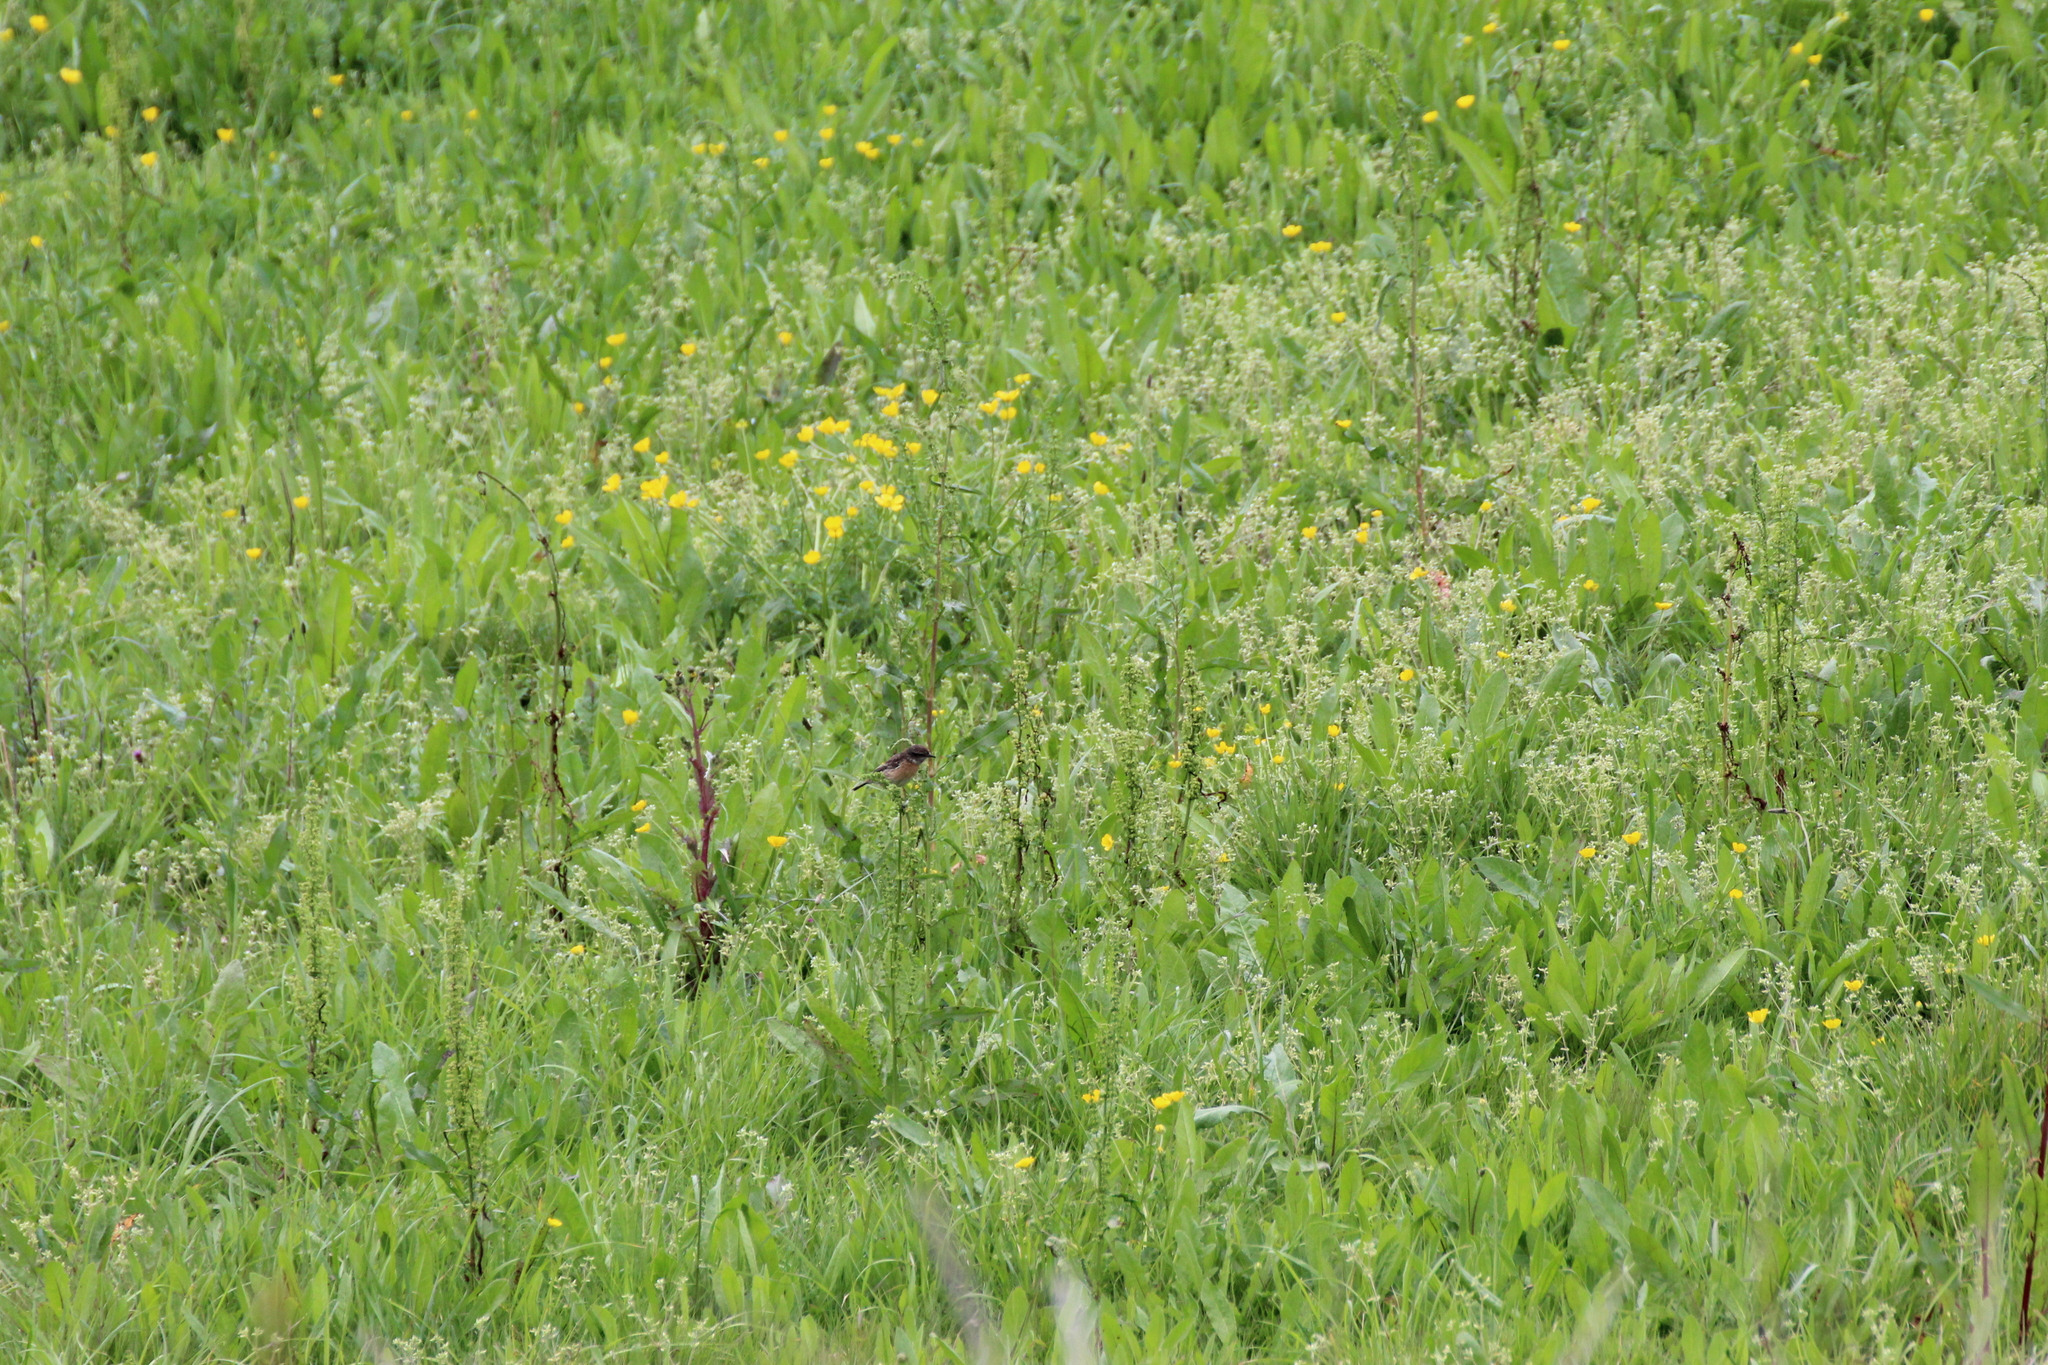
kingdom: Animalia
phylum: Chordata
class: Aves
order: Passeriformes
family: Muscicapidae
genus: Saxicola
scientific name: Saxicola rubicola
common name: European stonechat
